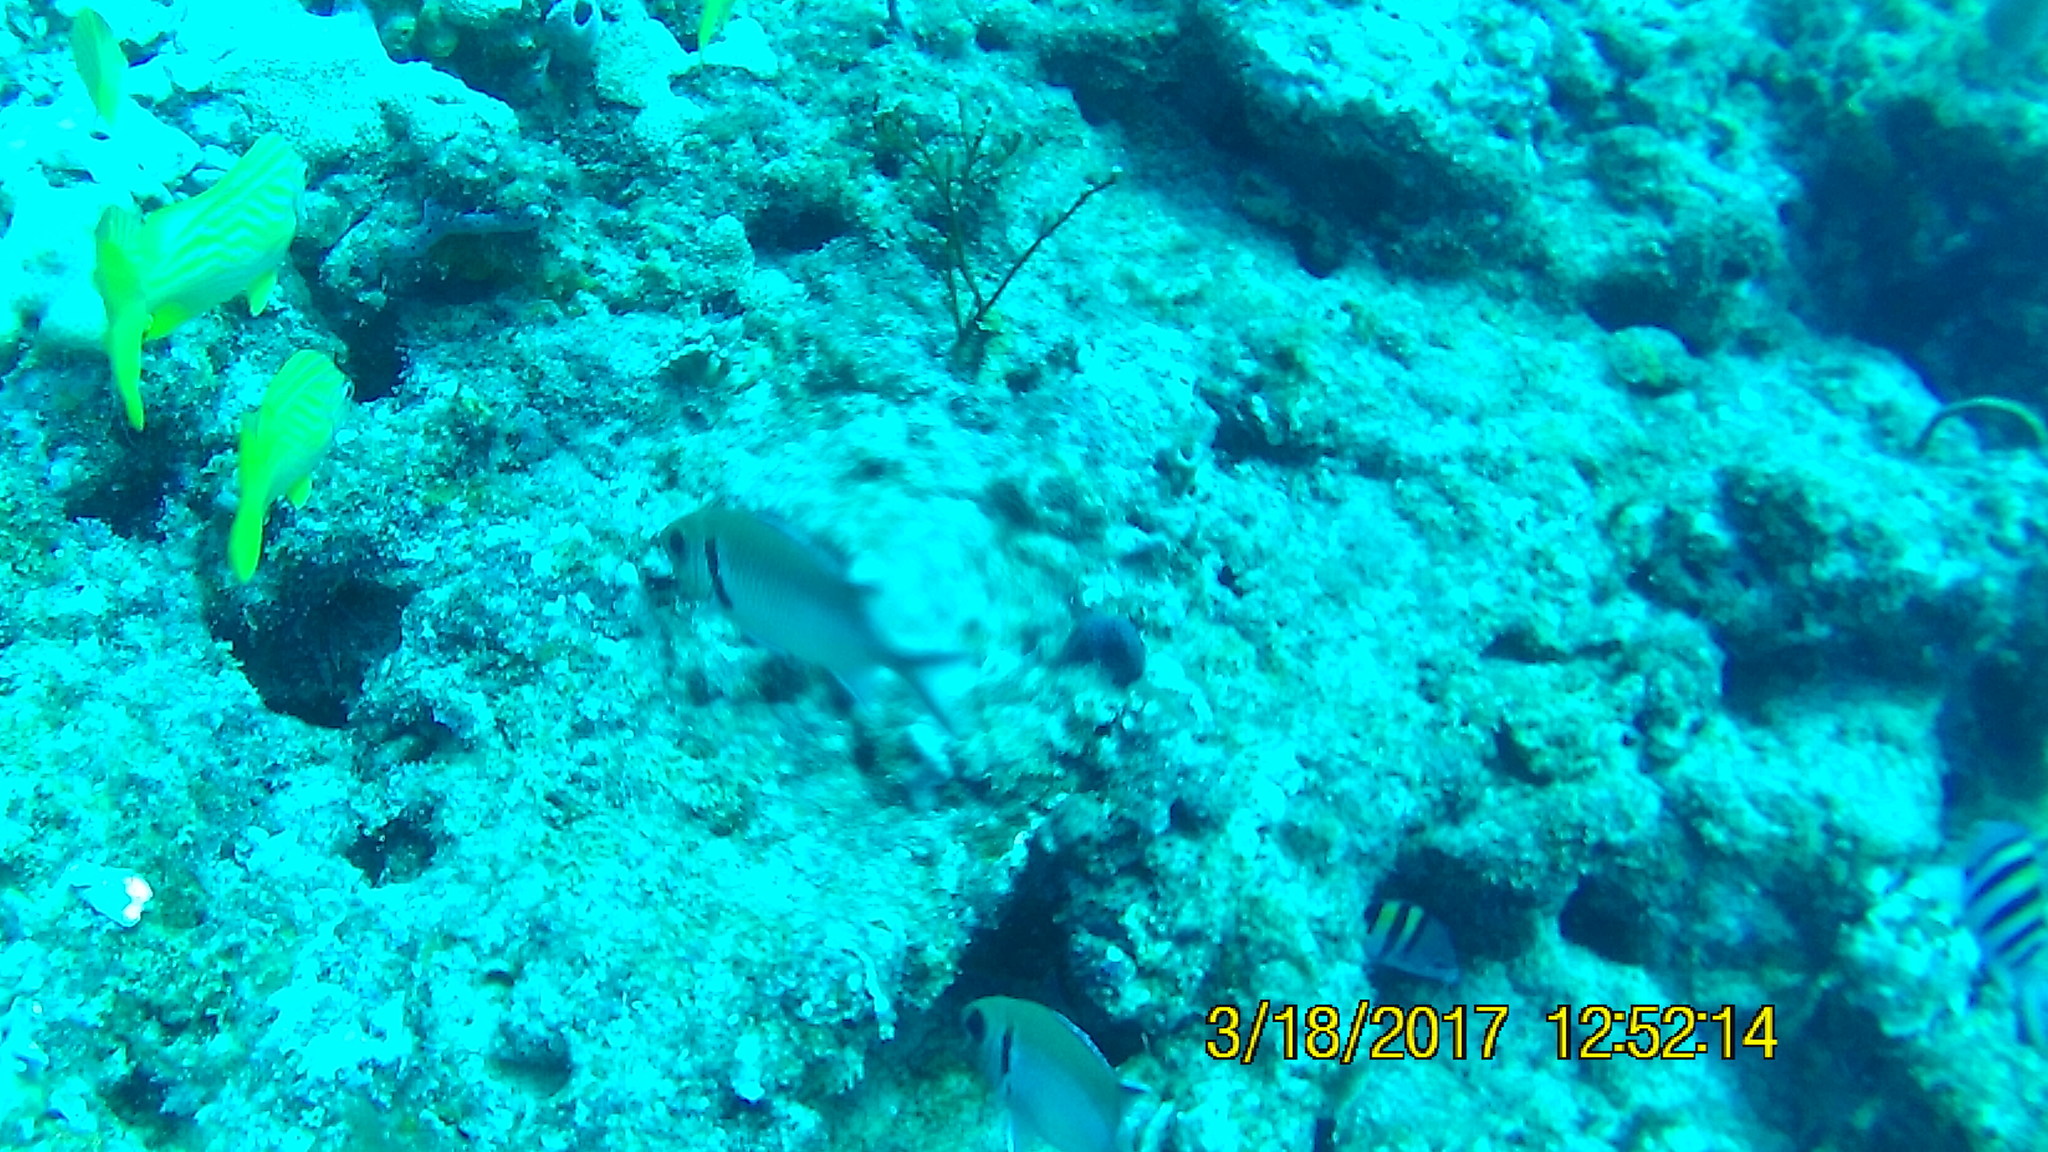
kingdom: Animalia
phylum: Chordata
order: Perciformes
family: Haemulidae
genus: Haemulon
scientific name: Haemulon carbonarium
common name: Caesar grunt
